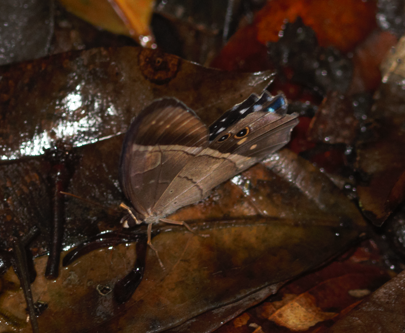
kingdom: Animalia
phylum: Arthropoda
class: Insecta
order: Lepidoptera
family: Nymphalidae
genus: Pierella
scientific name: Pierella lena
